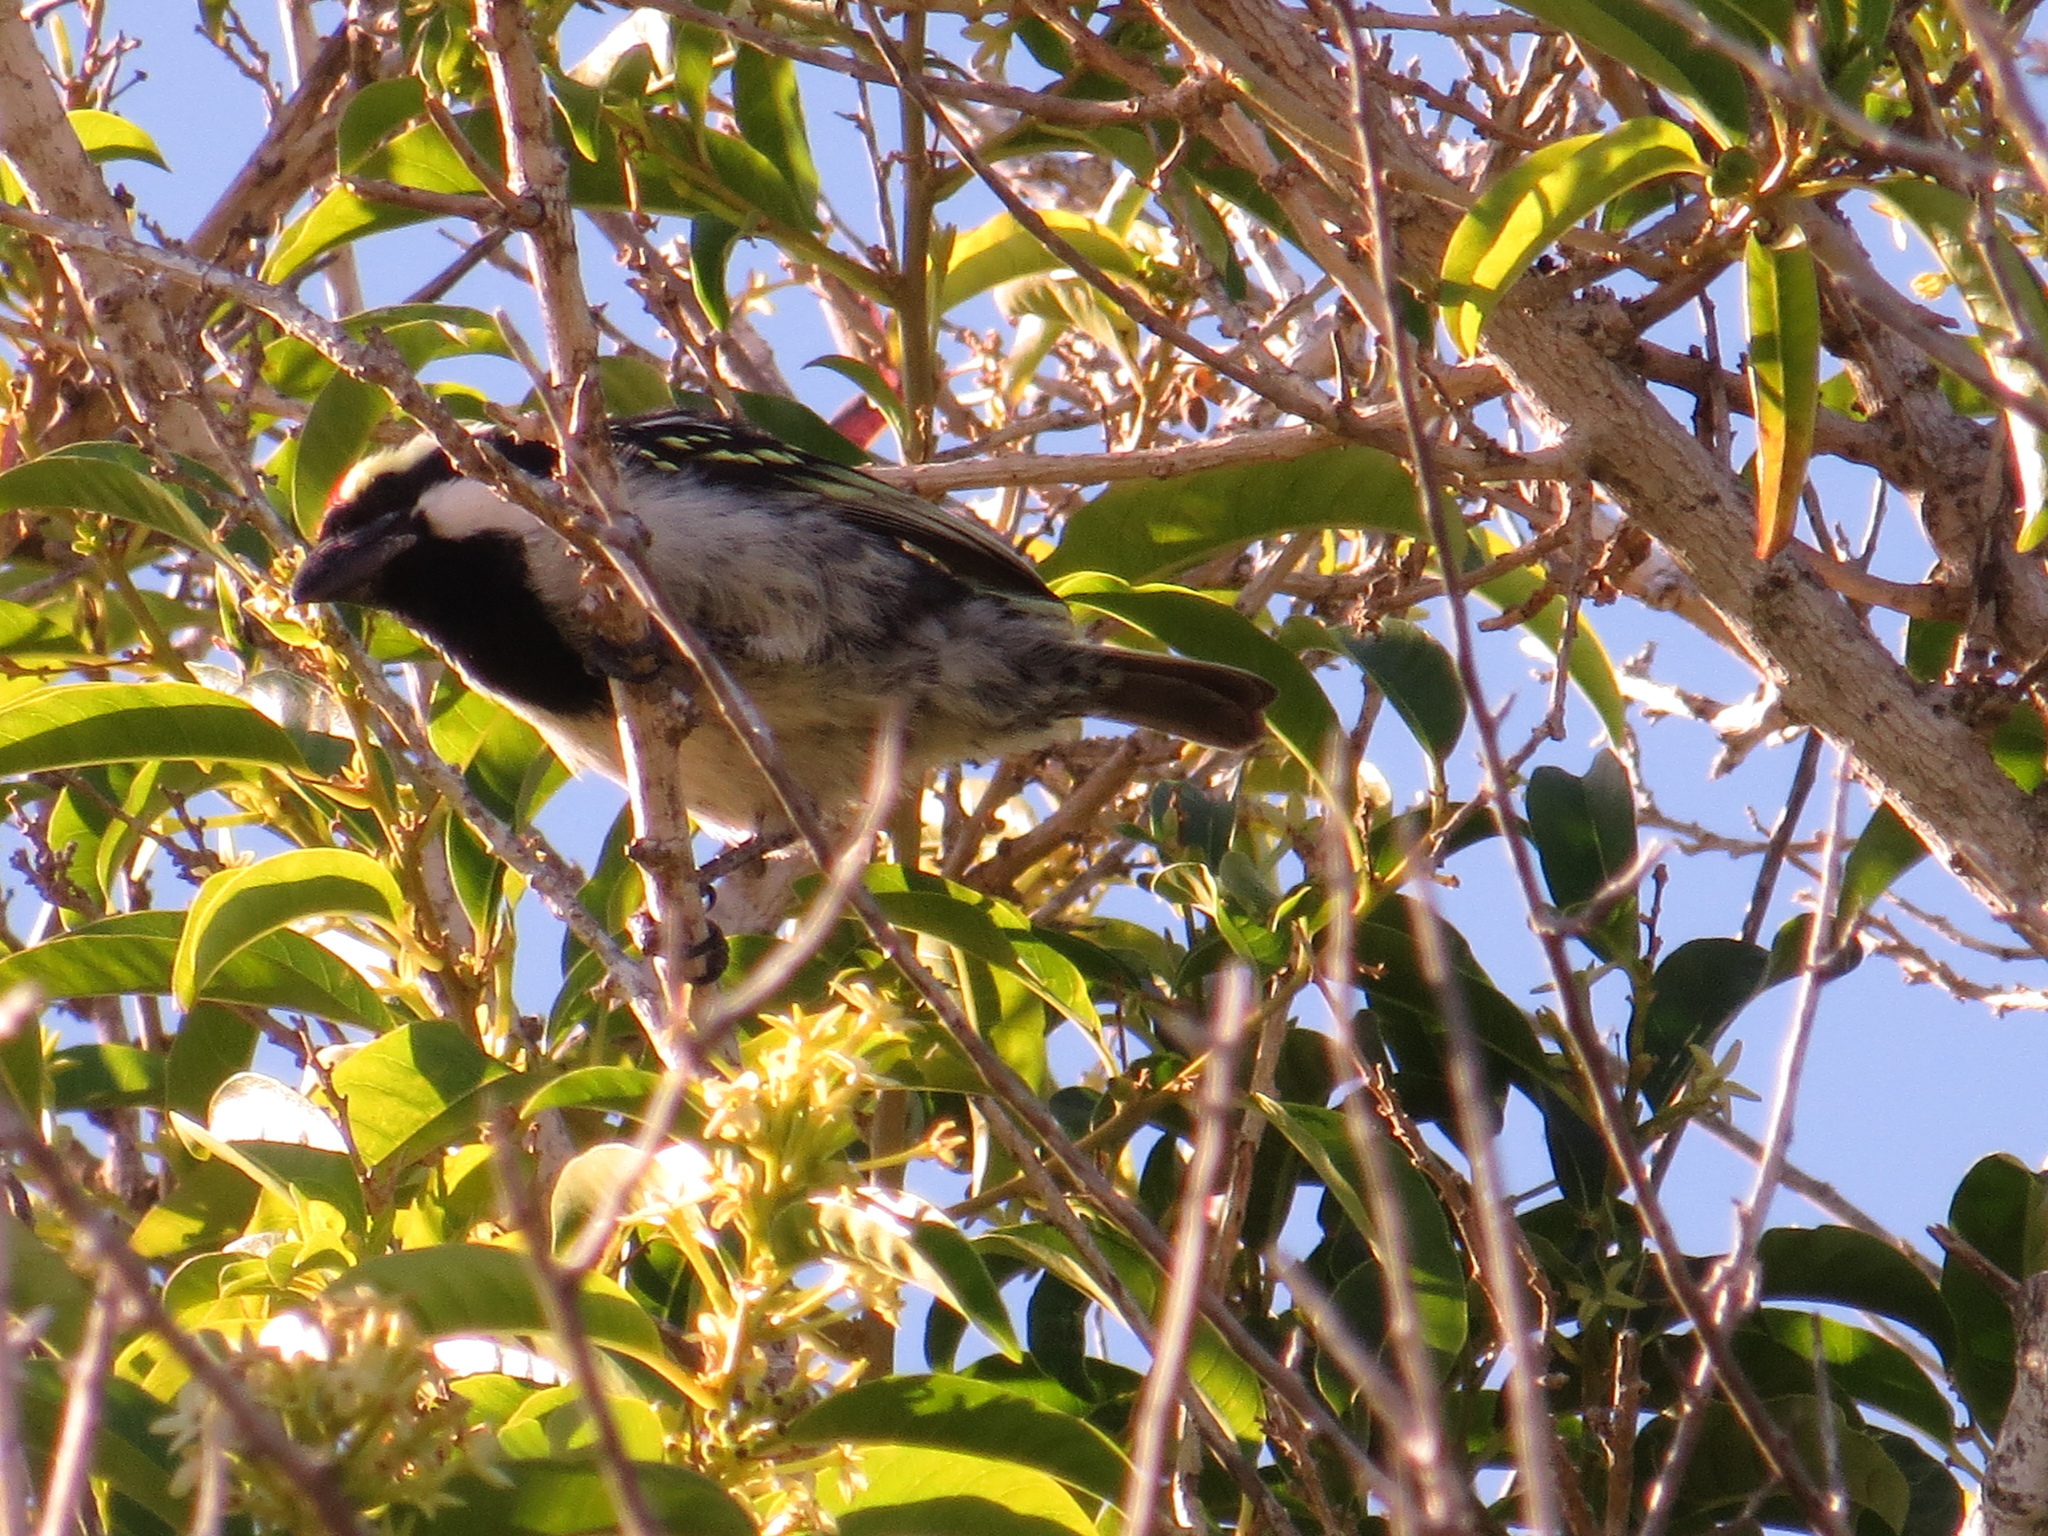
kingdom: Animalia
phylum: Chordata
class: Aves
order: Piciformes
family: Lybiidae
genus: Tricholaema
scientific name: Tricholaema leucomelas
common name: Acacia pied barbet
